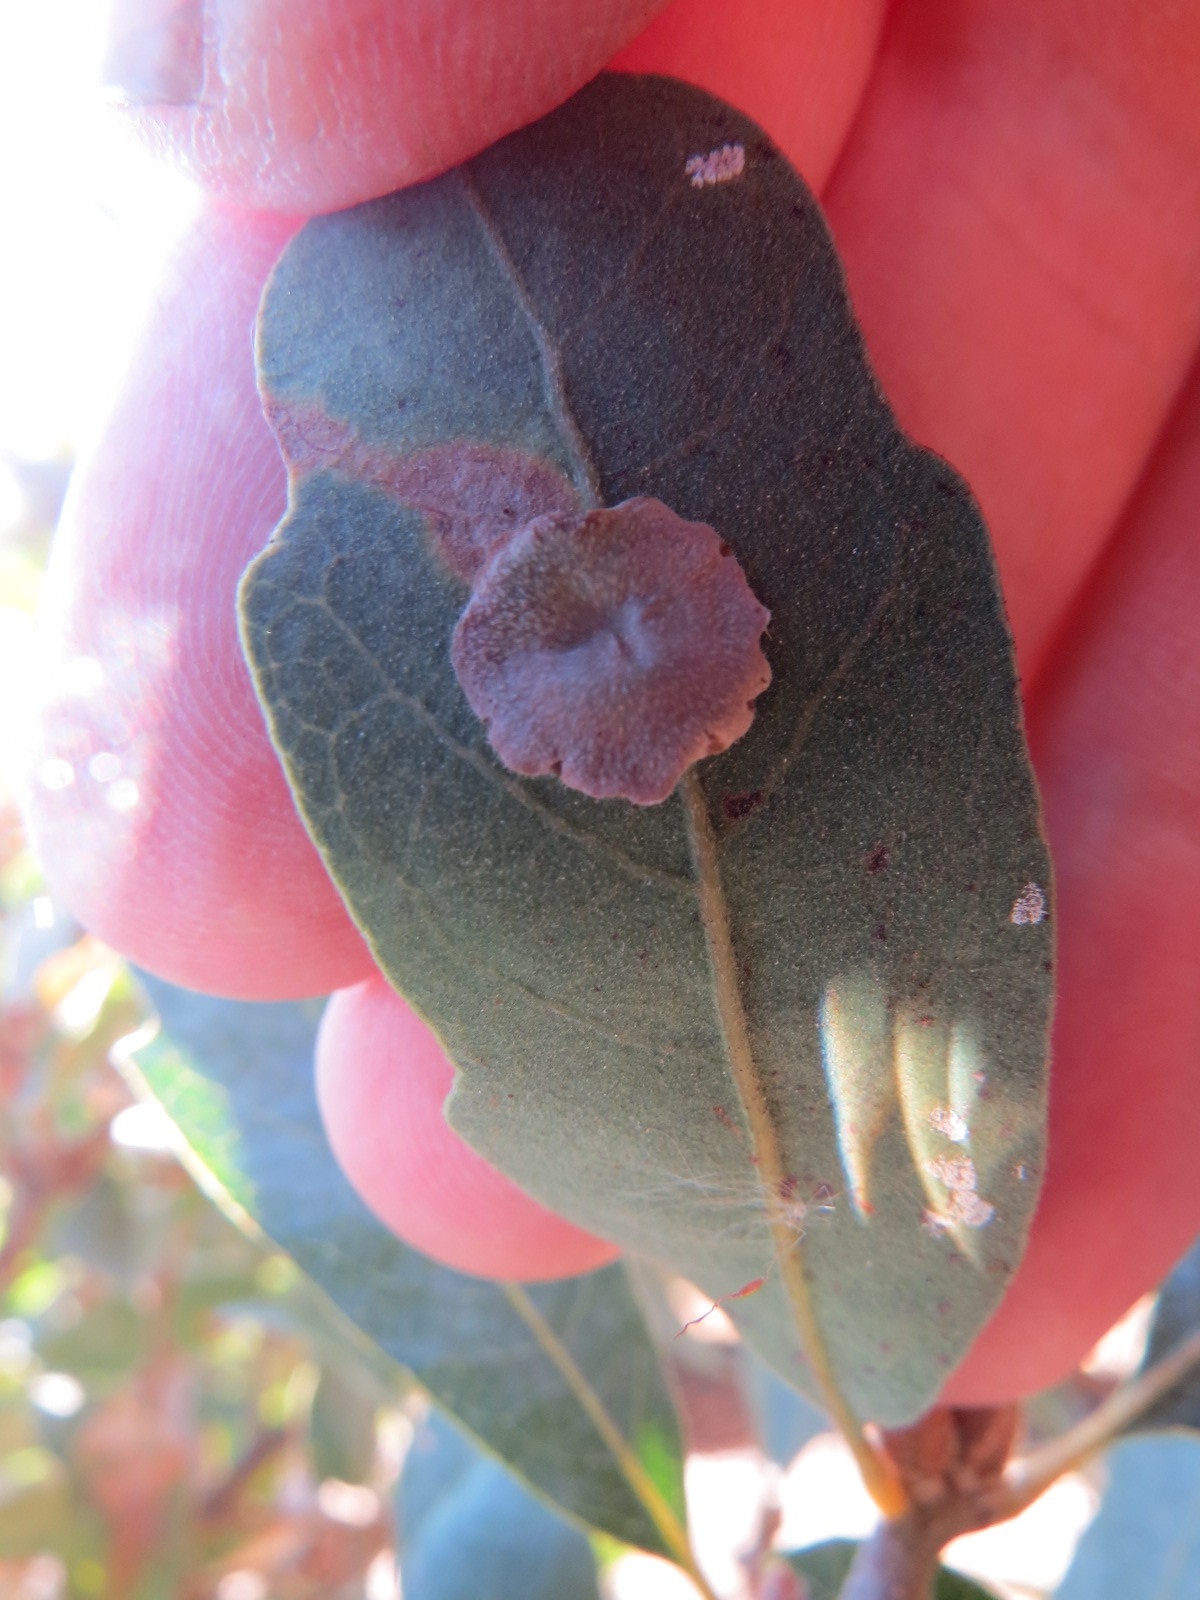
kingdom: Animalia
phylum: Arthropoda
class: Insecta
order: Hymenoptera
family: Cynipidae
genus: Andricus
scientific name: Andricus
